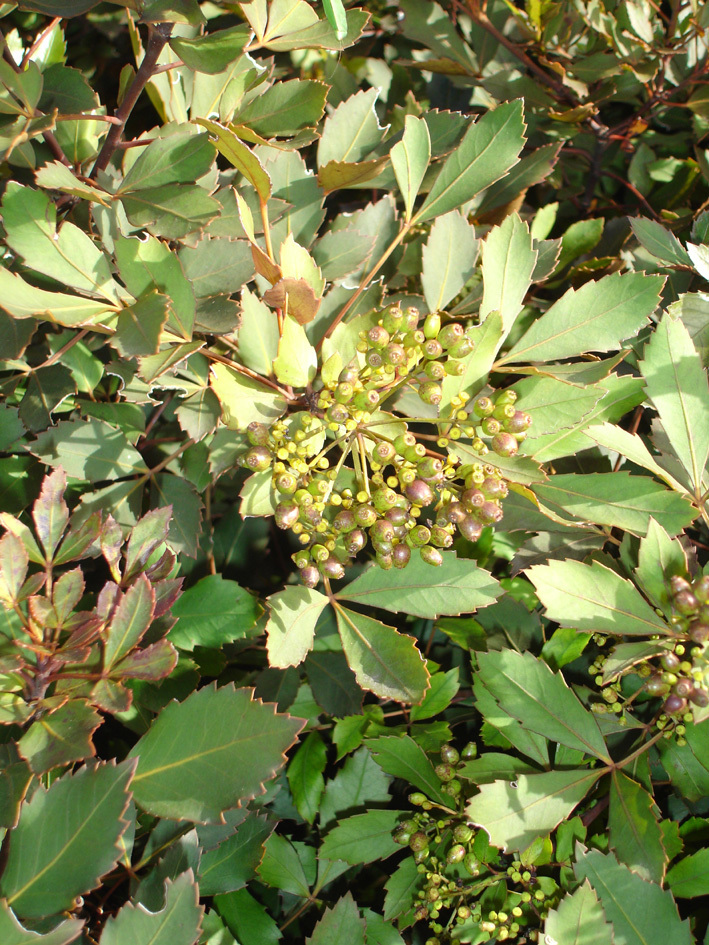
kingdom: Plantae
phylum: Tracheophyta
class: Magnoliopsida
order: Apiales
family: Araliaceae
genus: Pseudopanax
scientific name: Pseudopanax discolor
